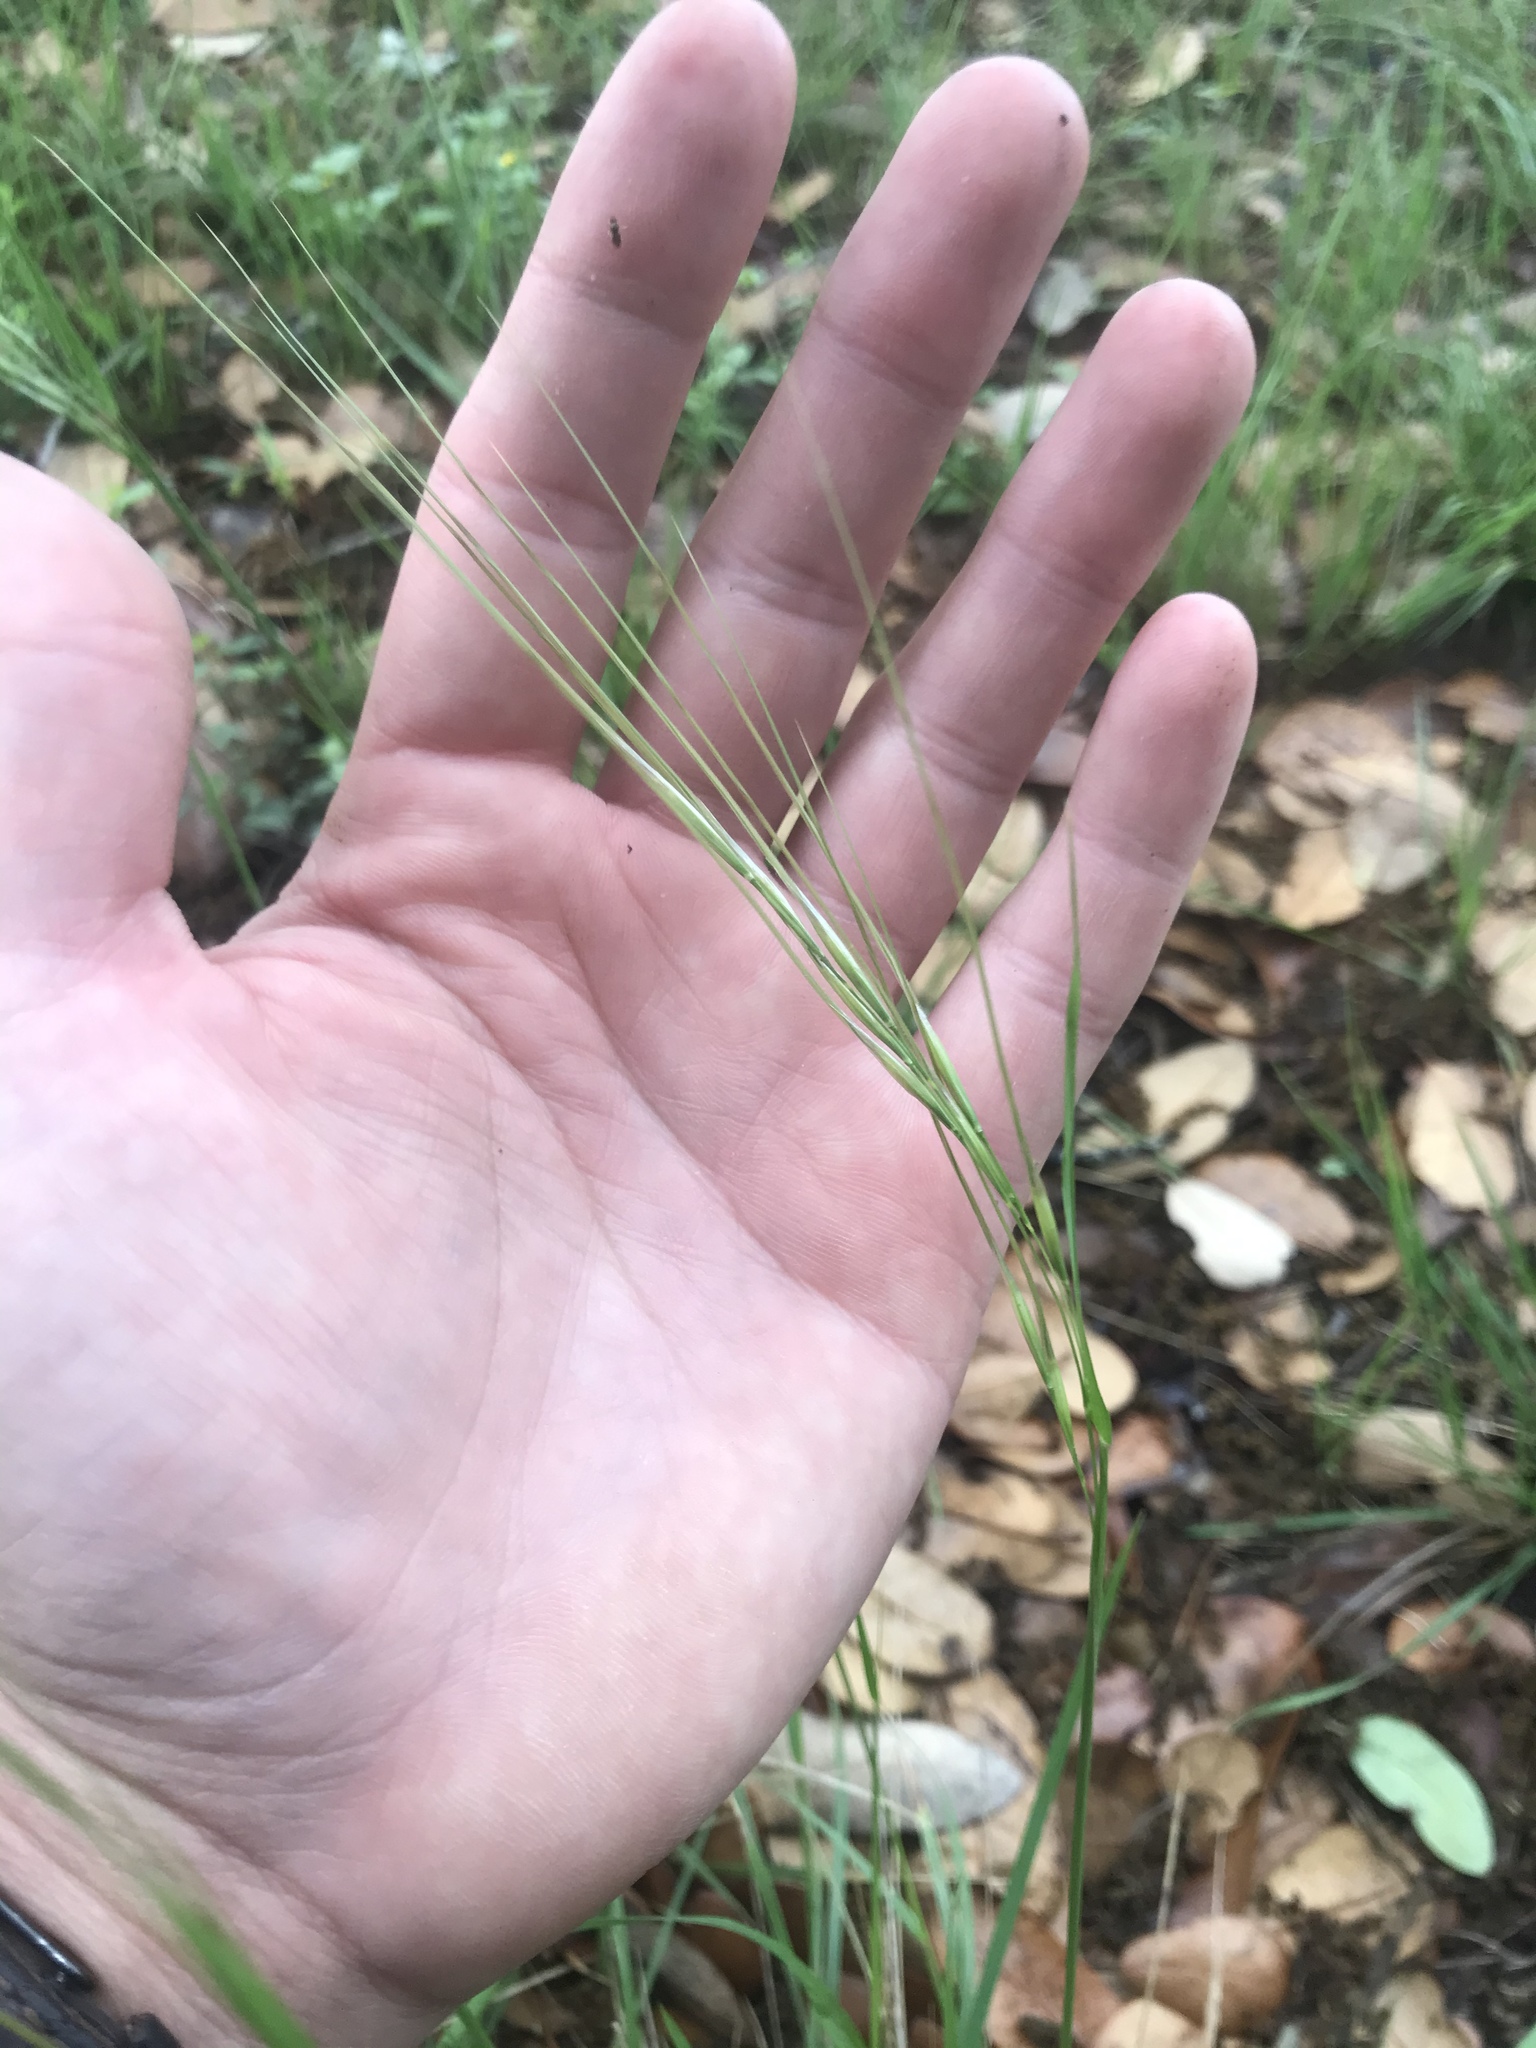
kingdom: Plantae
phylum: Tracheophyta
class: Liliopsida
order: Poales
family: Poaceae
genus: Nassella
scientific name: Nassella leucotricha
